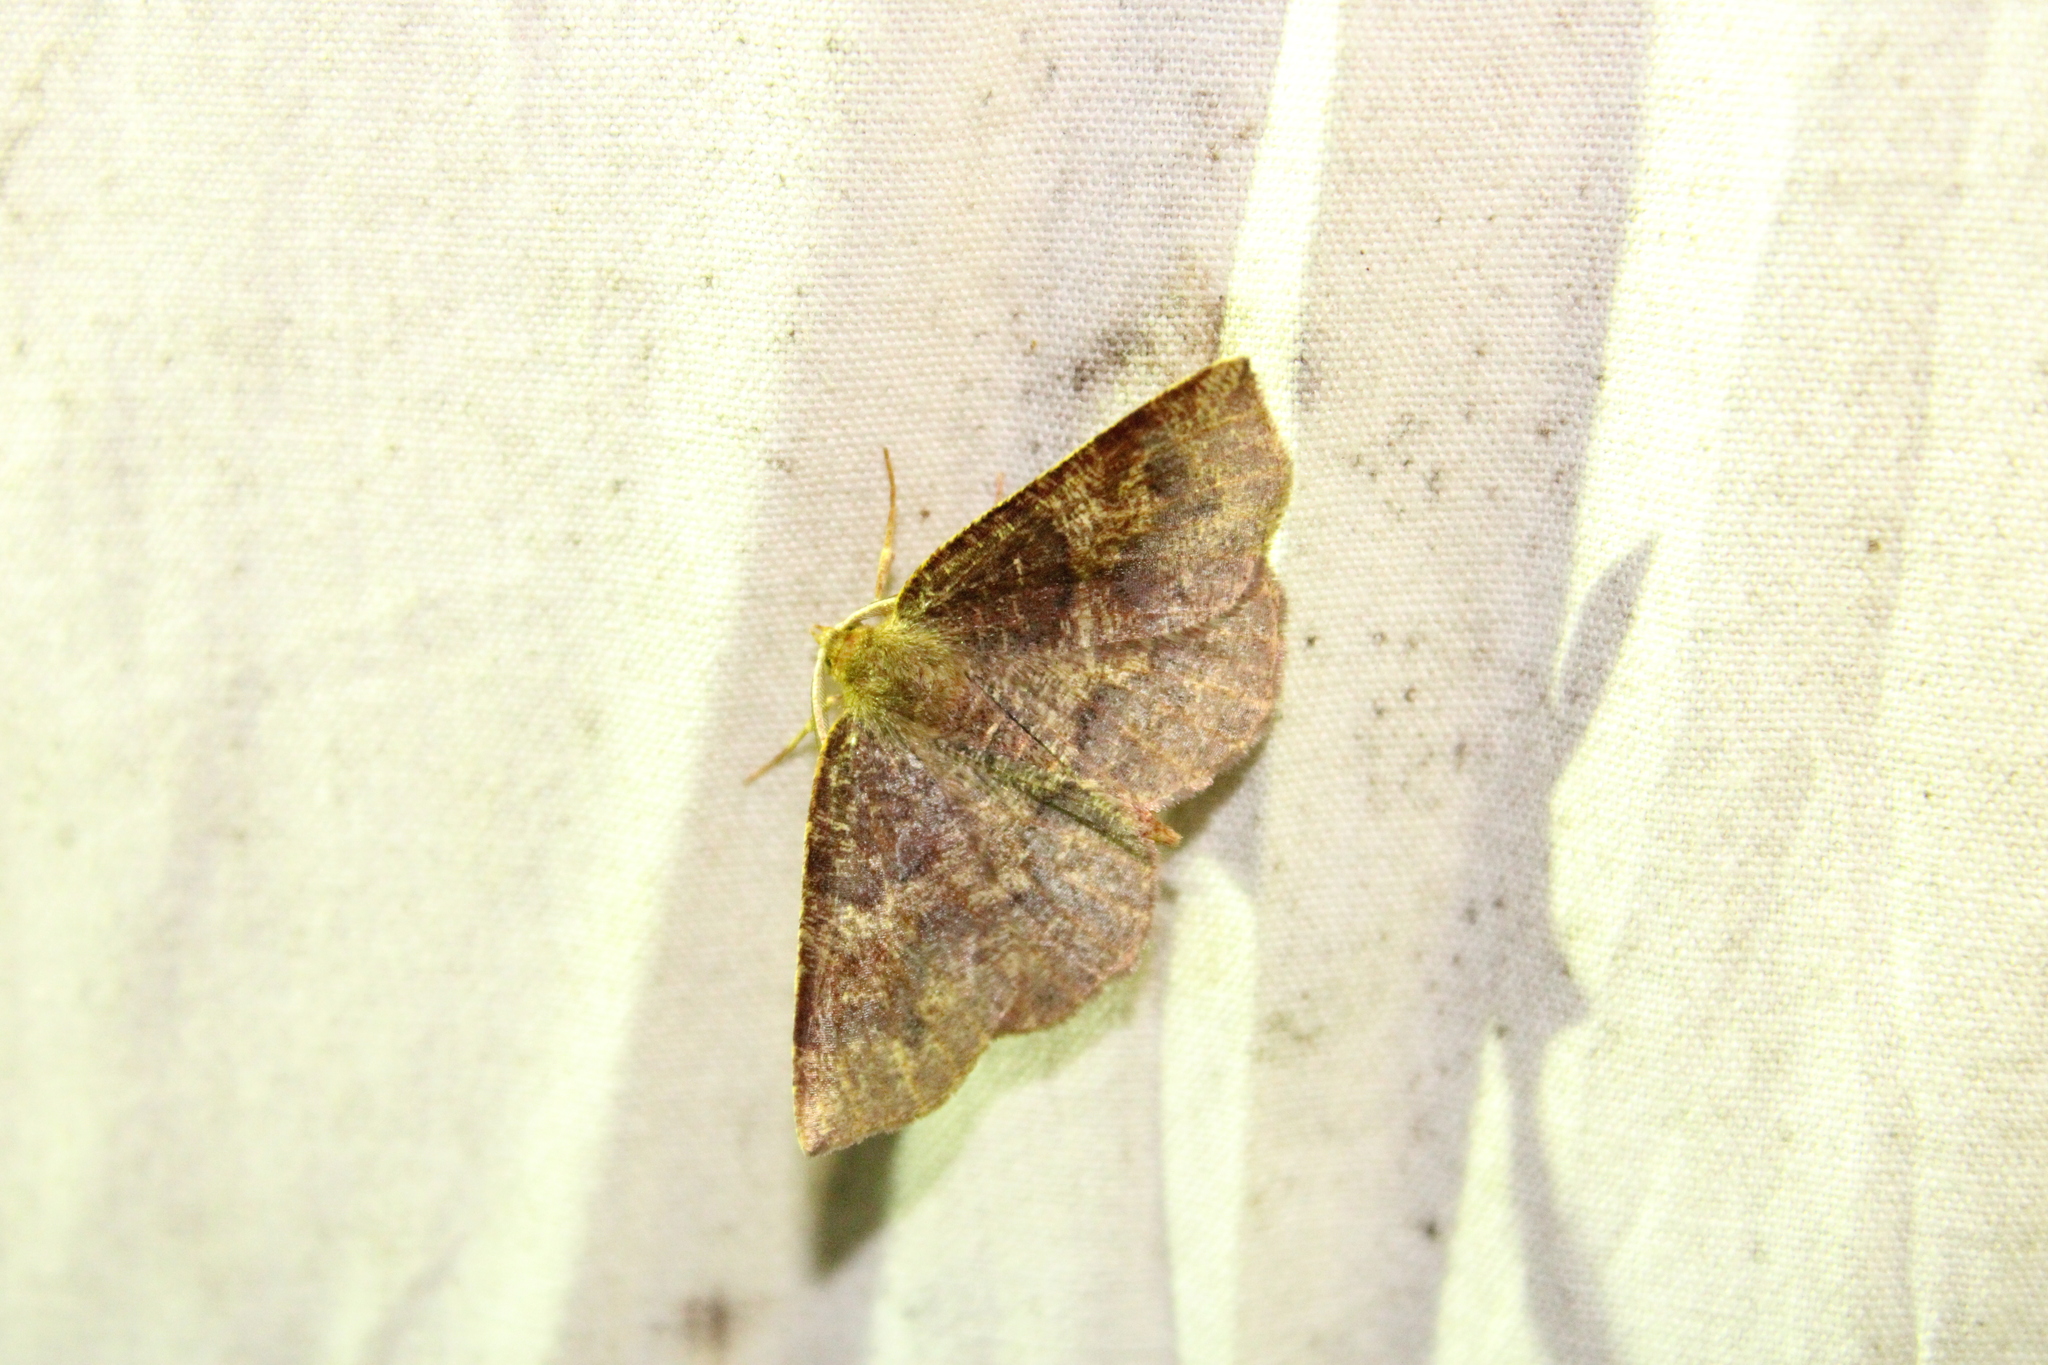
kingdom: Animalia
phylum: Arthropoda
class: Insecta
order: Lepidoptera
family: Geometridae
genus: Metarranthis
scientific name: Metarranthis angularia
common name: Angled metarranthis moth
